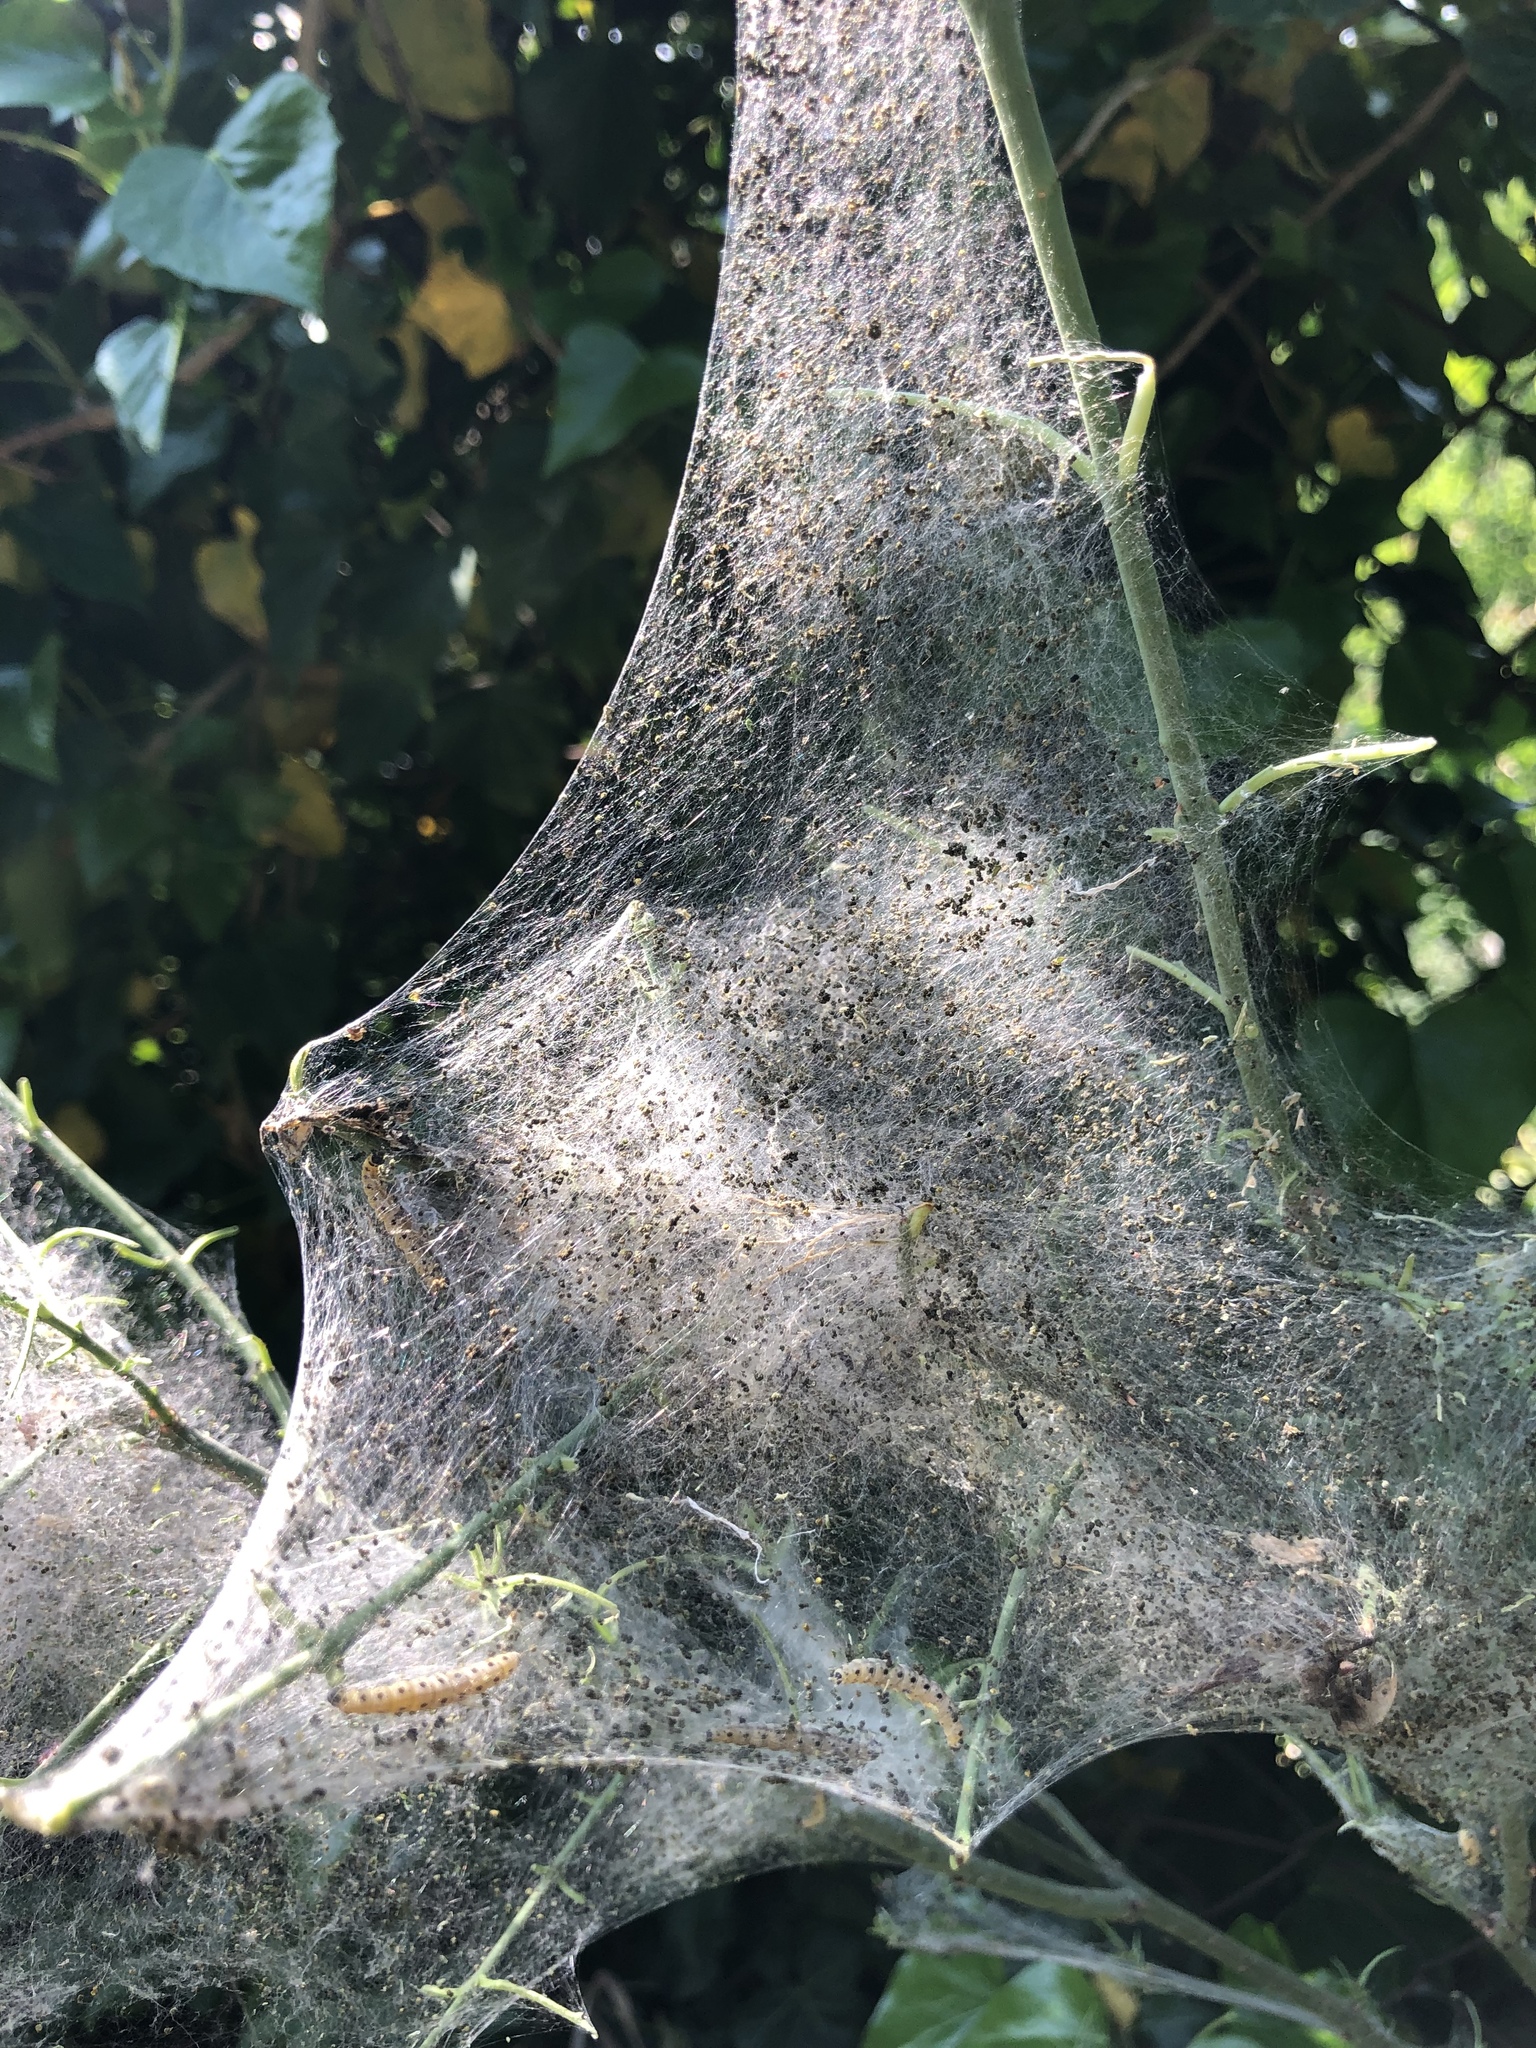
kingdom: Animalia
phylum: Arthropoda
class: Insecta
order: Lepidoptera
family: Yponomeutidae
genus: Yponomeuta
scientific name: Yponomeuta cagnagellus
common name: Spindle ermine
